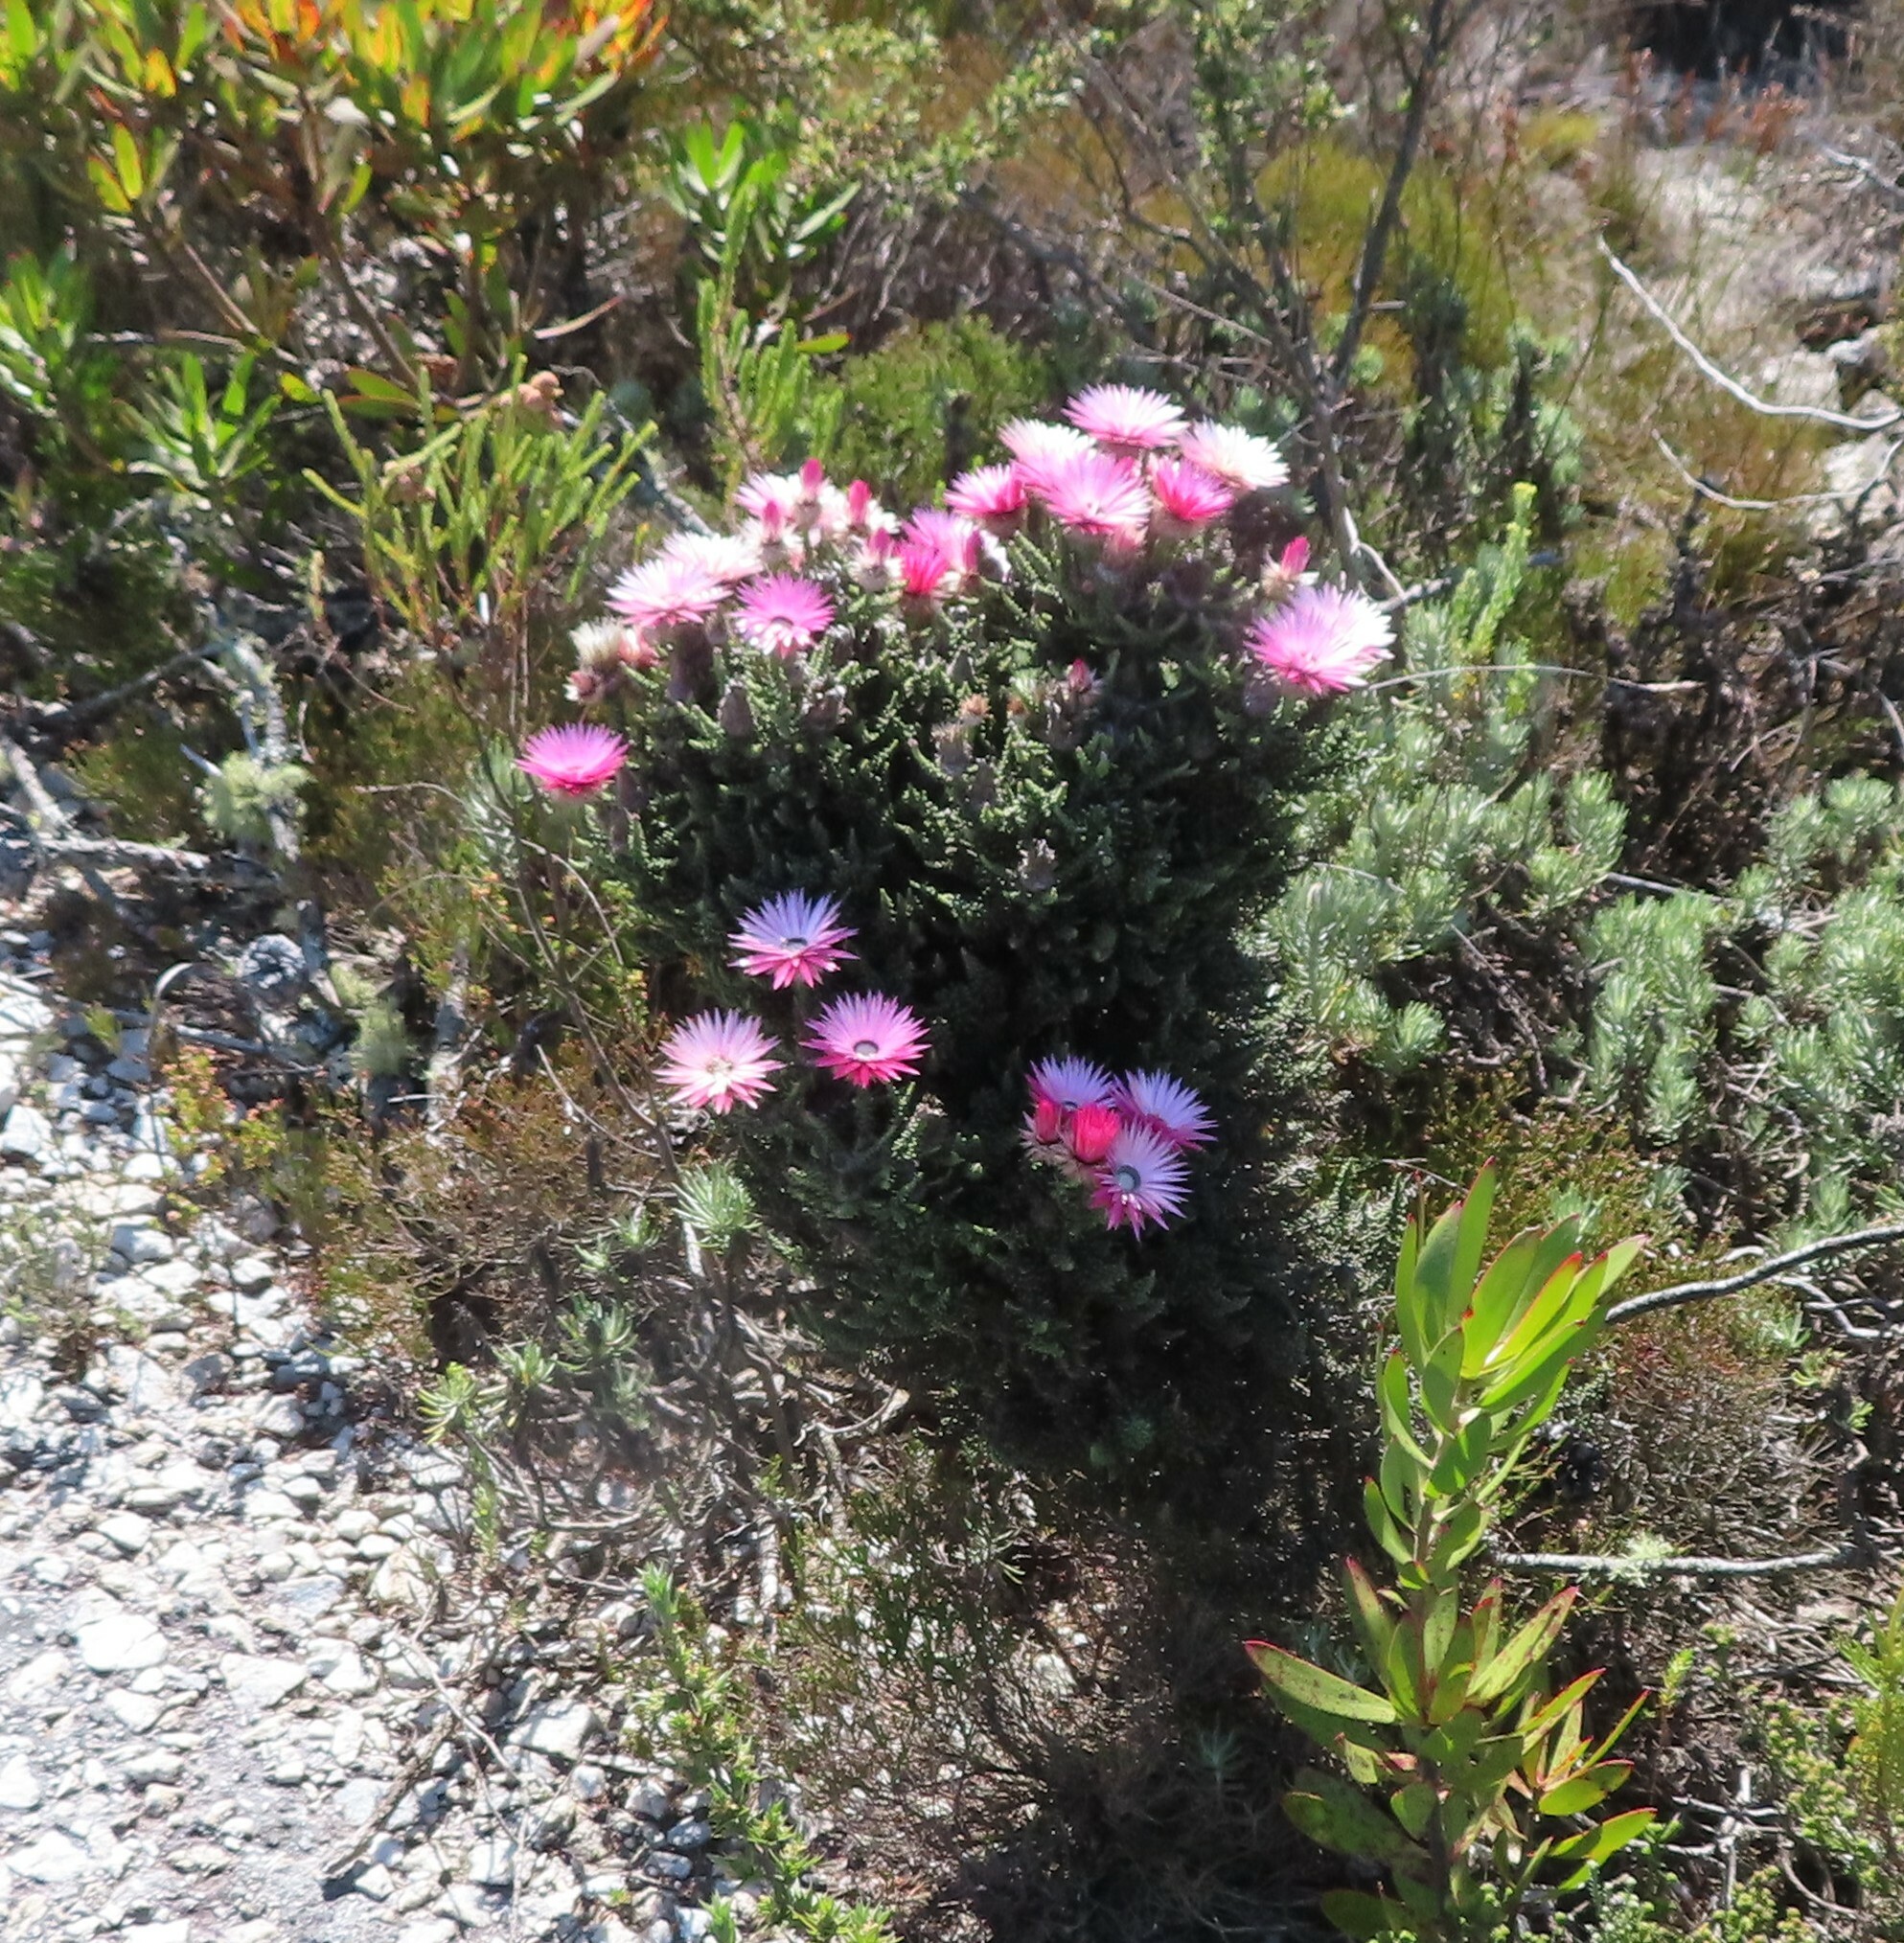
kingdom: Plantae
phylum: Tracheophyta
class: Magnoliopsida
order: Asterales
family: Asteraceae
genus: Phaenocoma
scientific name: Phaenocoma prolifera
